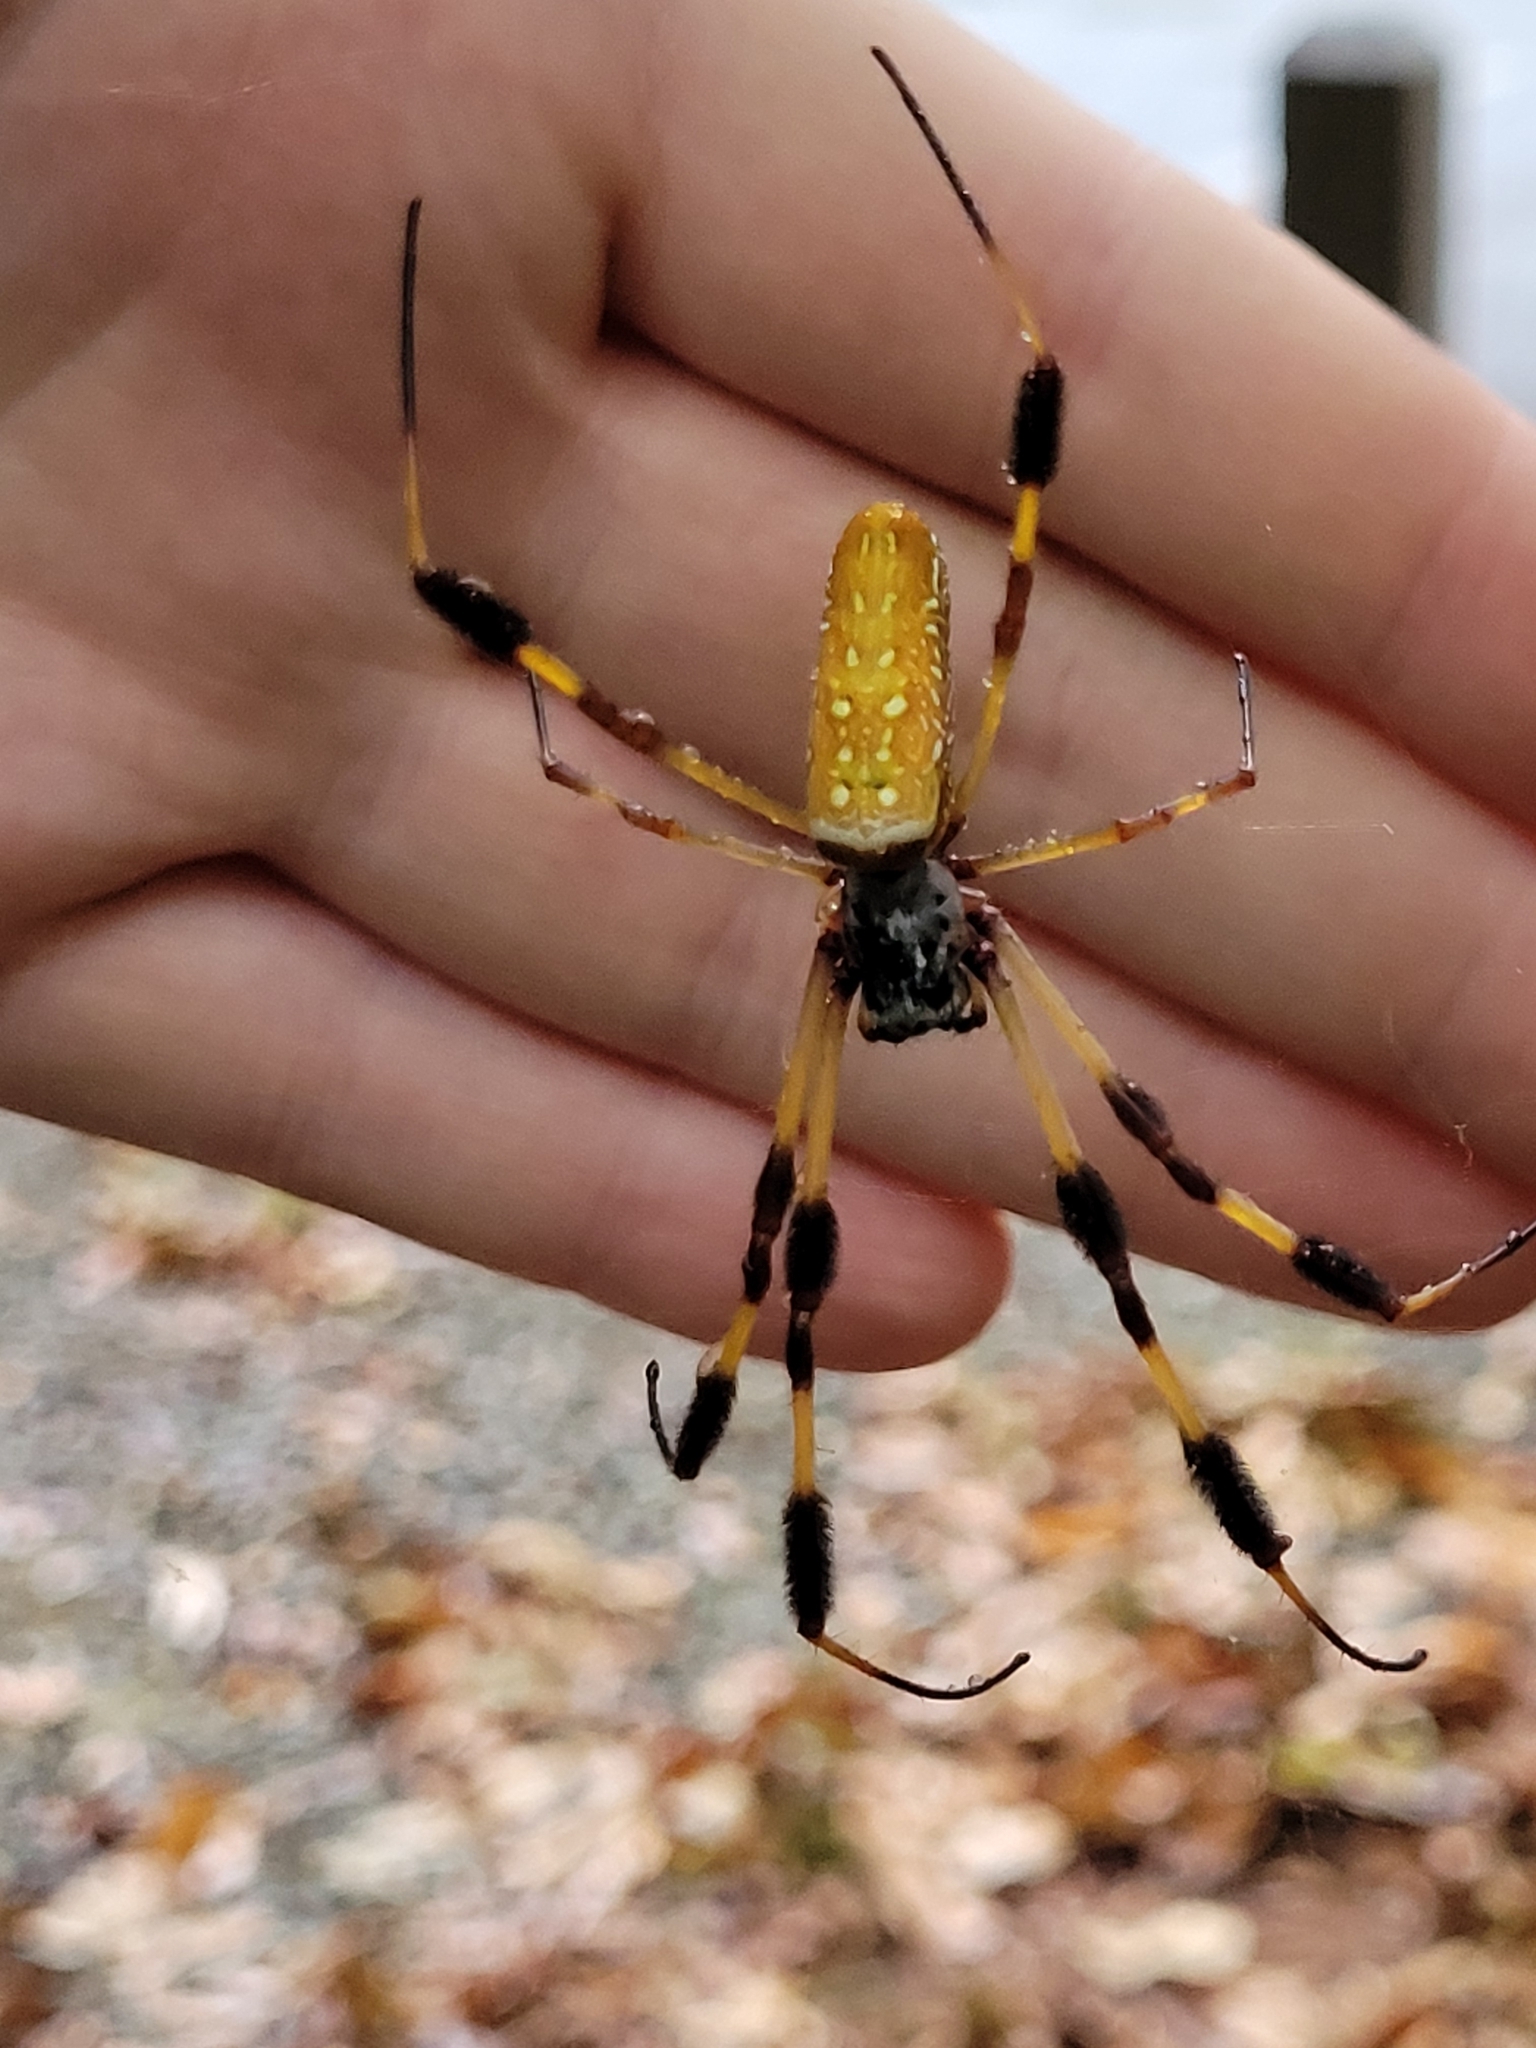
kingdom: Animalia
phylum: Arthropoda
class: Arachnida
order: Araneae
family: Araneidae
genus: Trichonephila
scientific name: Trichonephila clavipes
